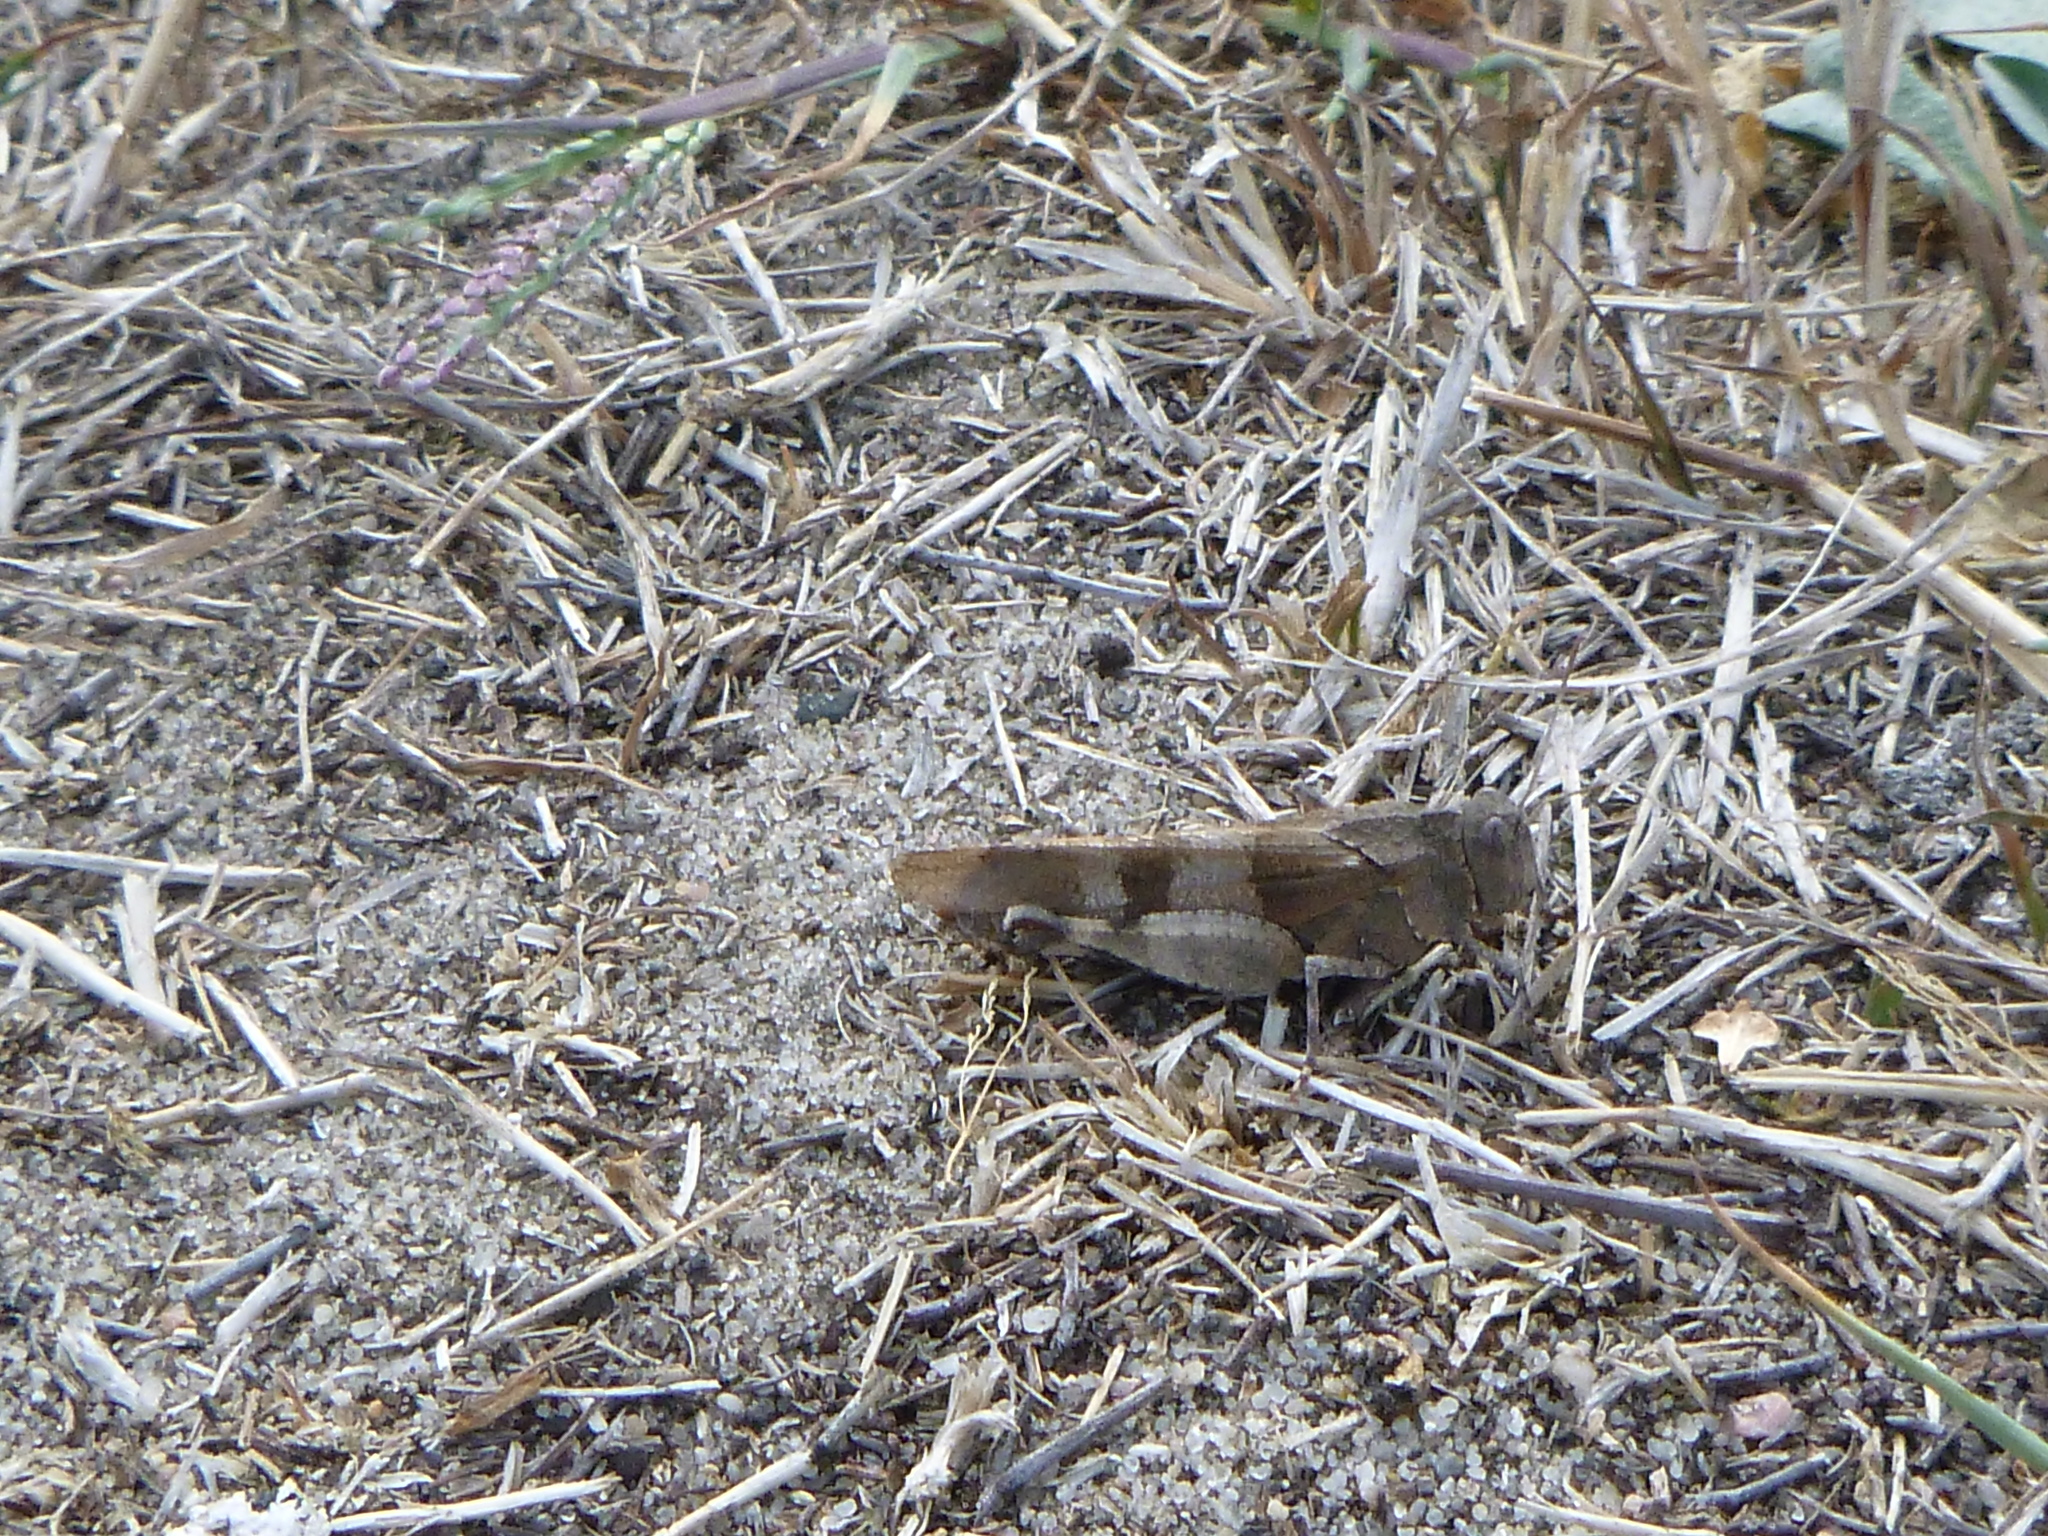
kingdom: Animalia
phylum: Arthropoda
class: Insecta
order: Orthoptera
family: Acrididae
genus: Oedipoda
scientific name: Oedipoda caerulescens
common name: Blue-winged grasshopper
